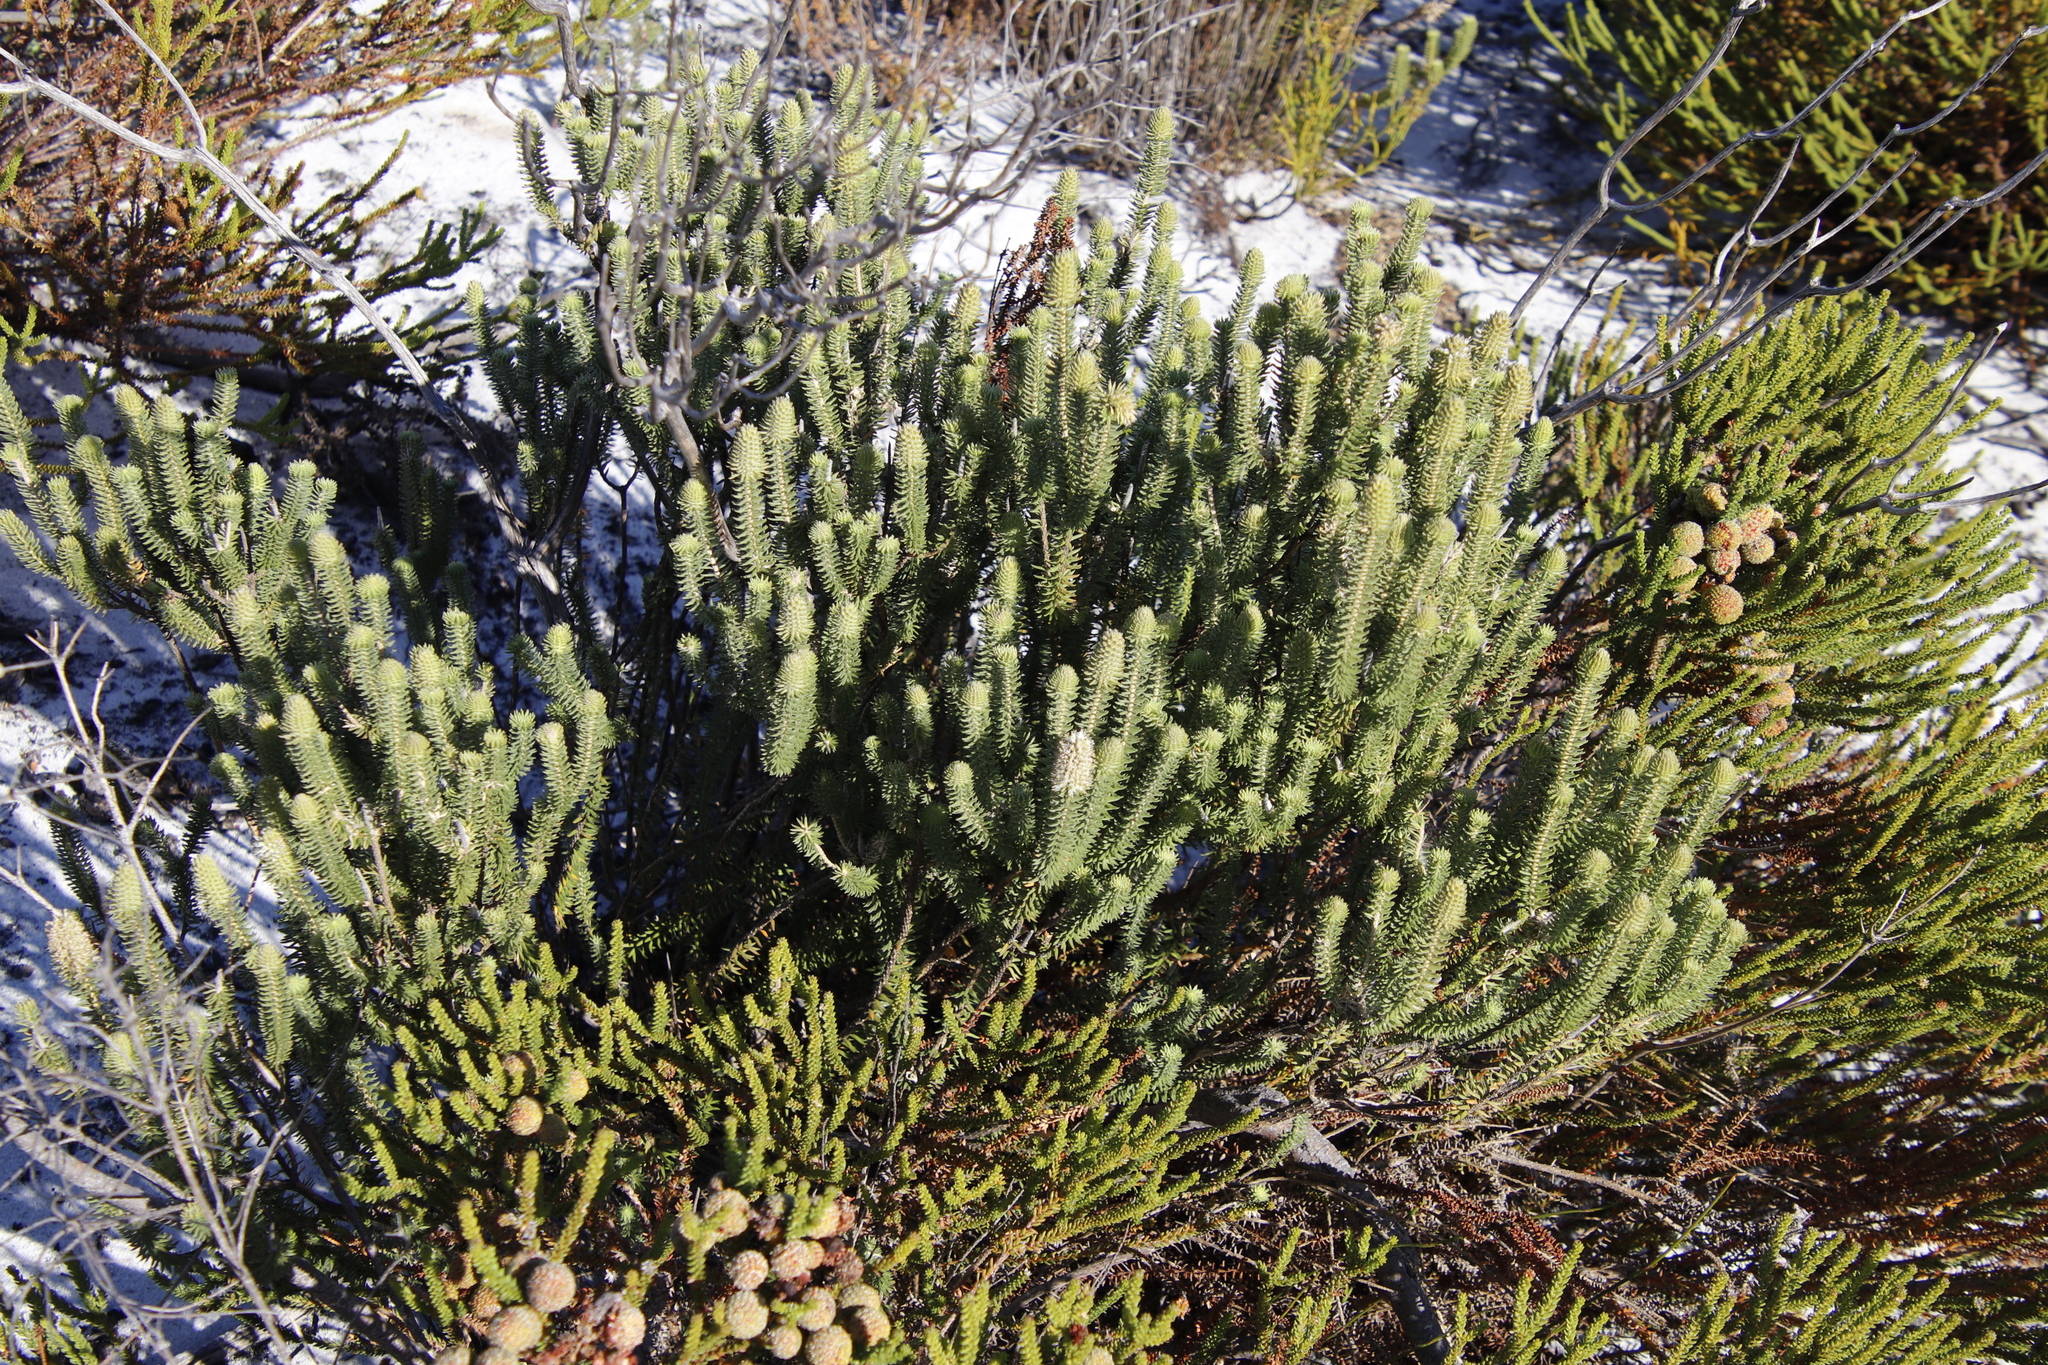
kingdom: Plantae
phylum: Tracheophyta
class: Magnoliopsida
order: Lamiales
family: Stilbaceae
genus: Stilbe
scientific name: Stilbe vestita
